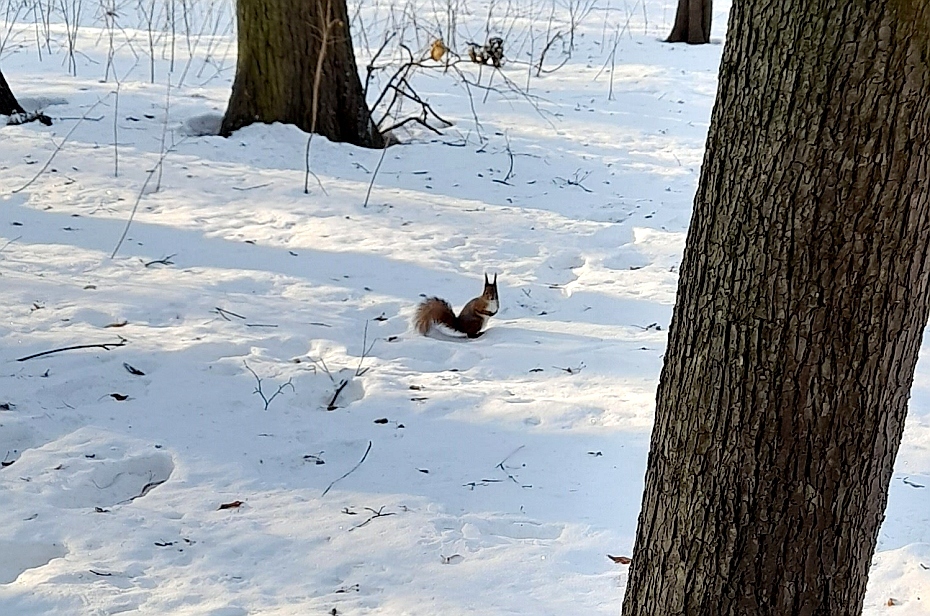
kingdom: Animalia
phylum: Chordata
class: Mammalia
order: Rodentia
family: Sciuridae
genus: Sciurus
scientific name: Sciurus vulgaris
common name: Eurasian red squirrel
